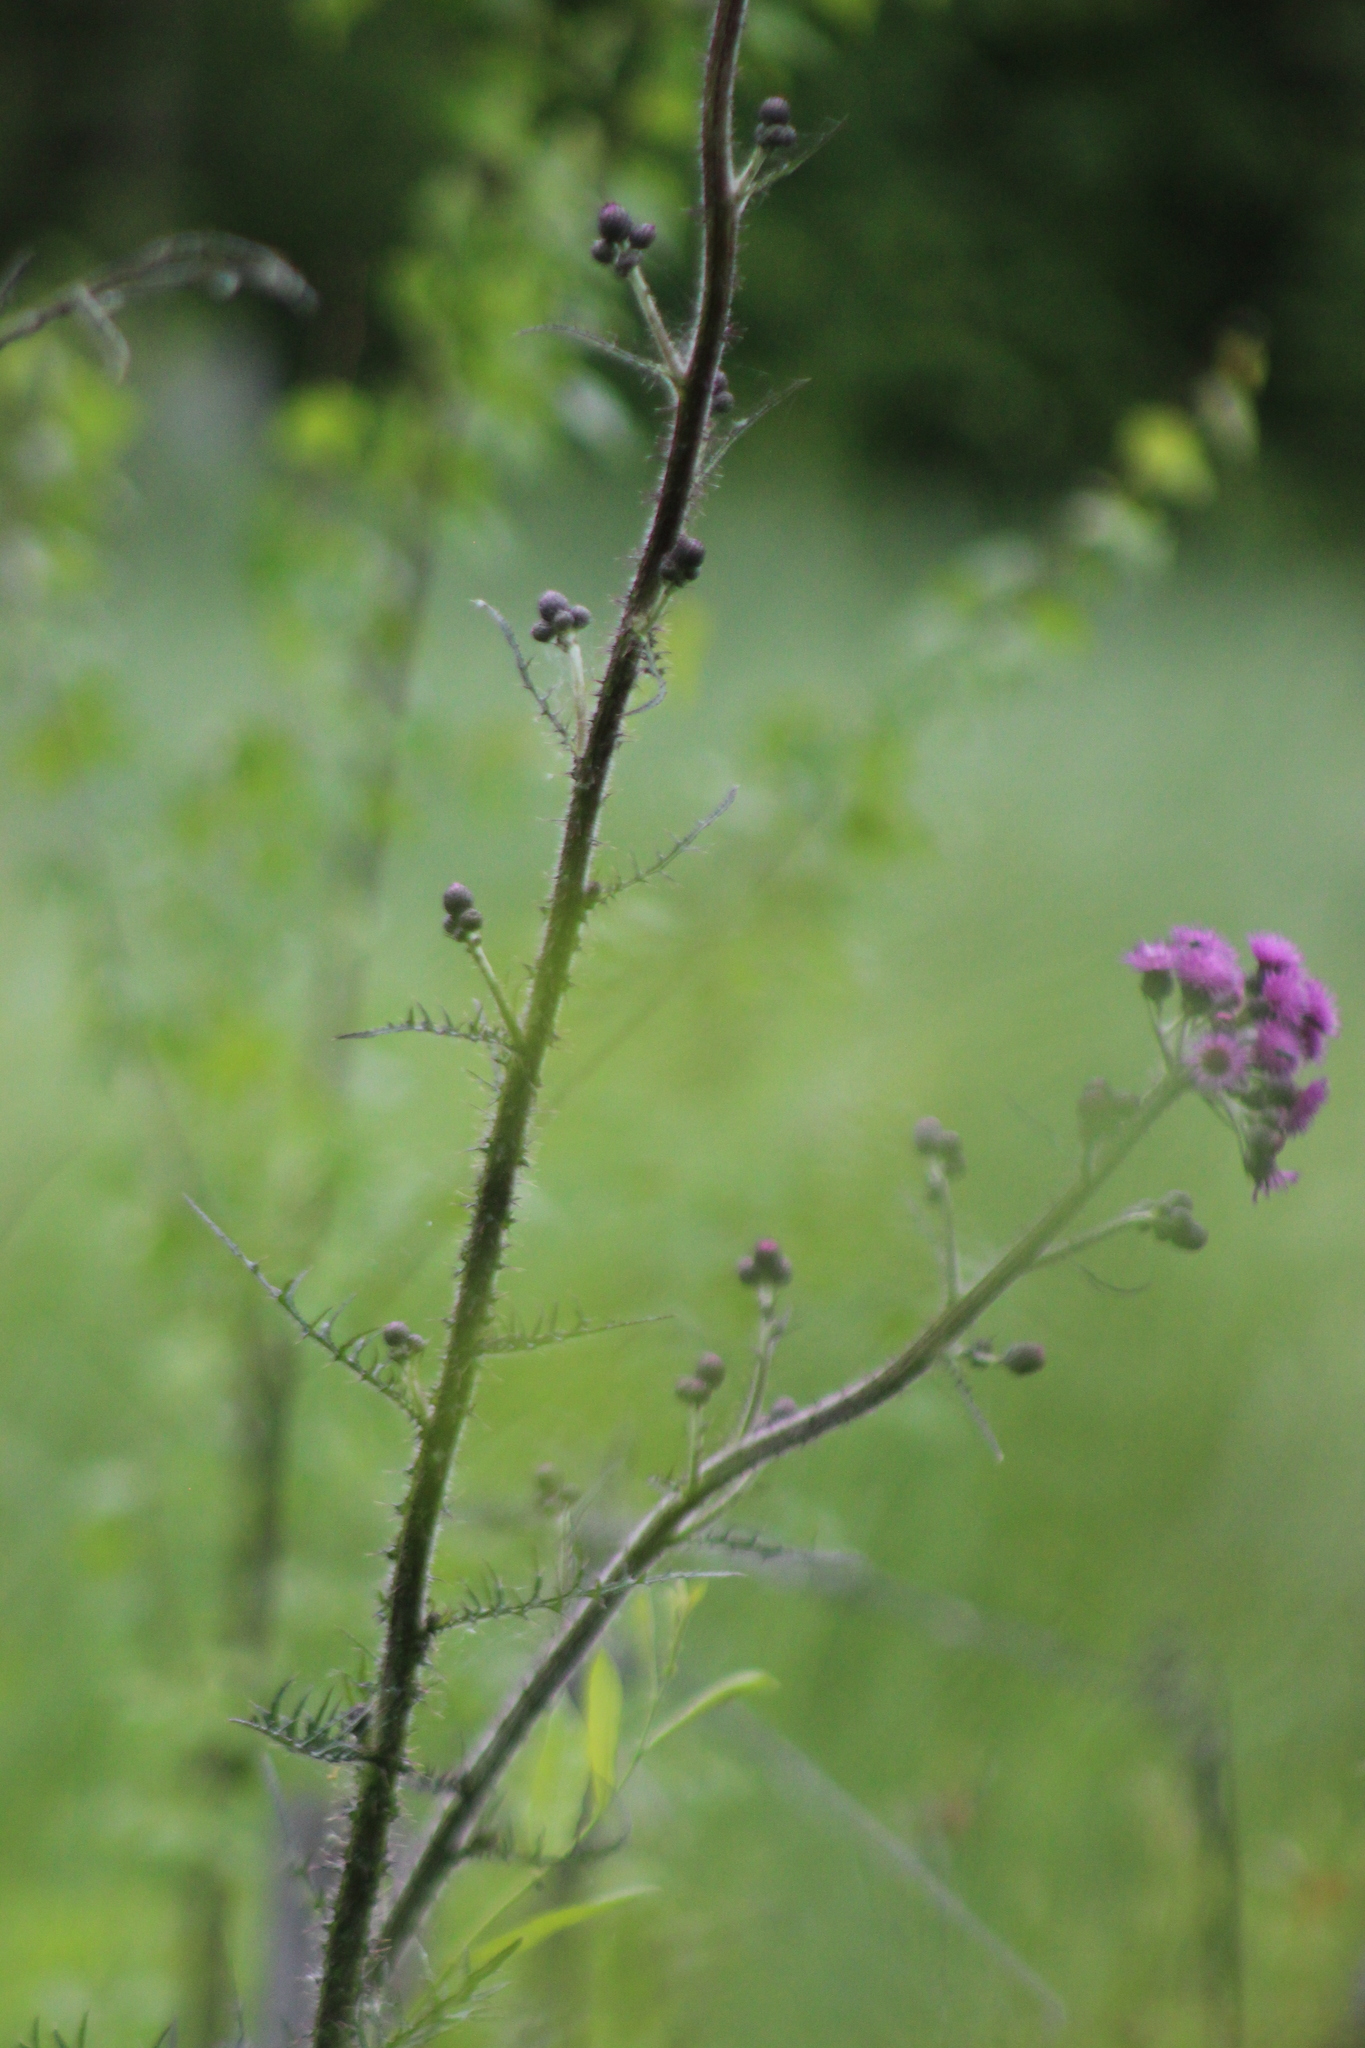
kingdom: Plantae
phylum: Tracheophyta
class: Magnoliopsida
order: Asterales
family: Asteraceae
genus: Cirsium
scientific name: Cirsium palustre
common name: Marsh thistle
